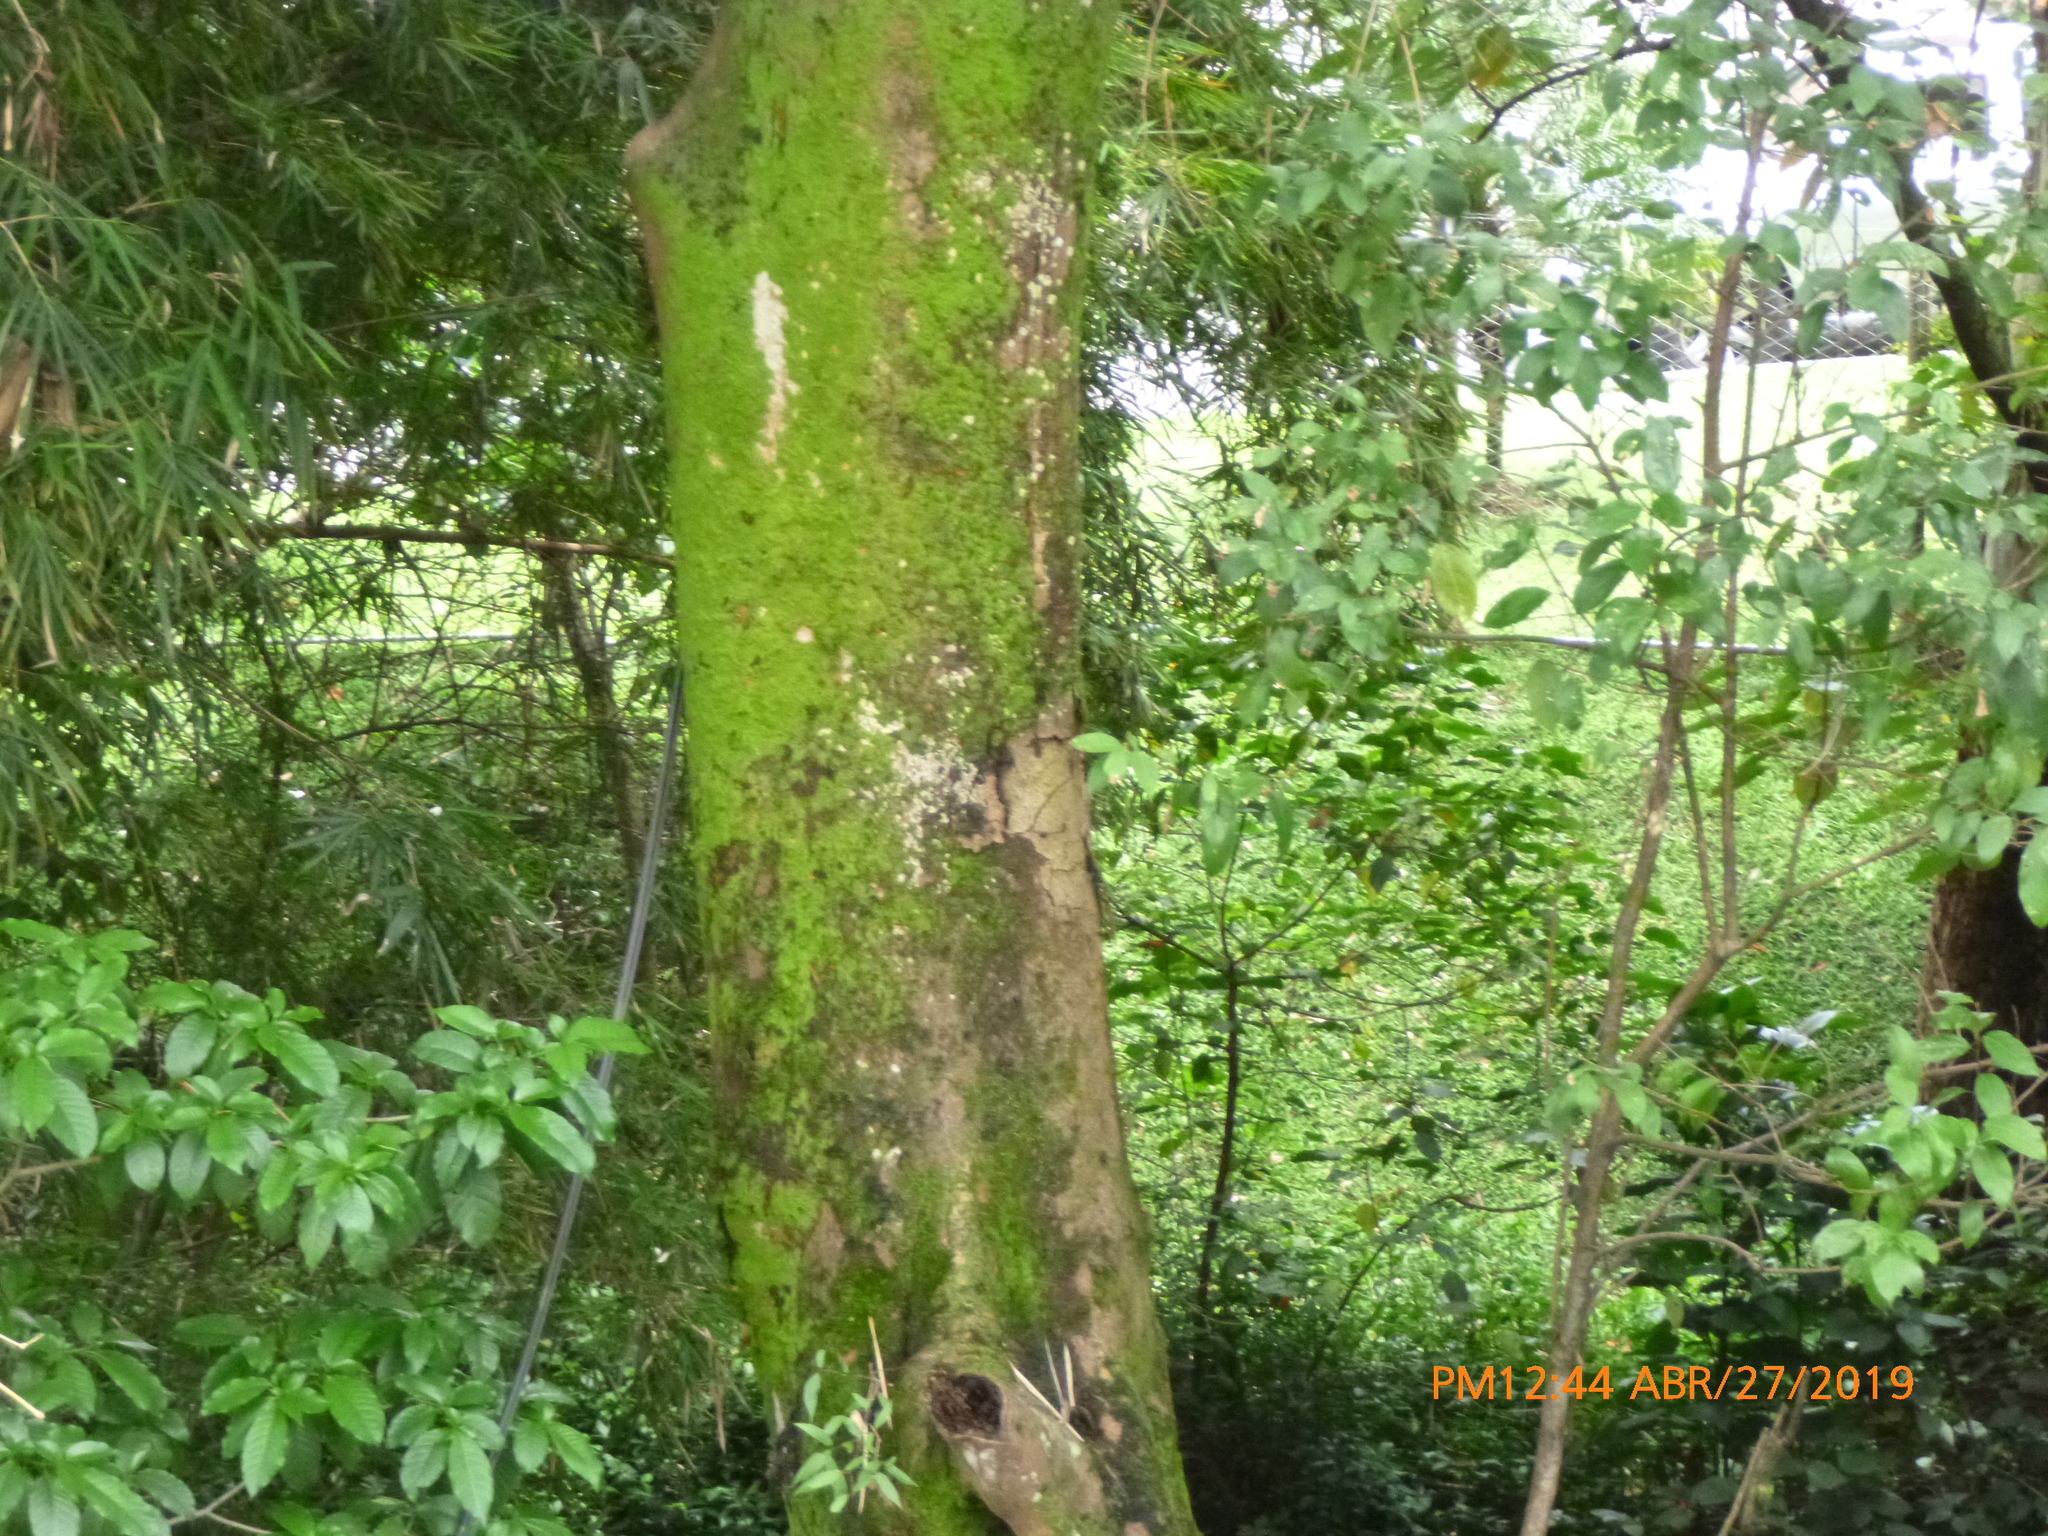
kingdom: Plantae
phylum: Tracheophyta
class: Magnoliopsida
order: Laurales
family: Lauraceae
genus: Aiouea
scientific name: Aiouea montana
